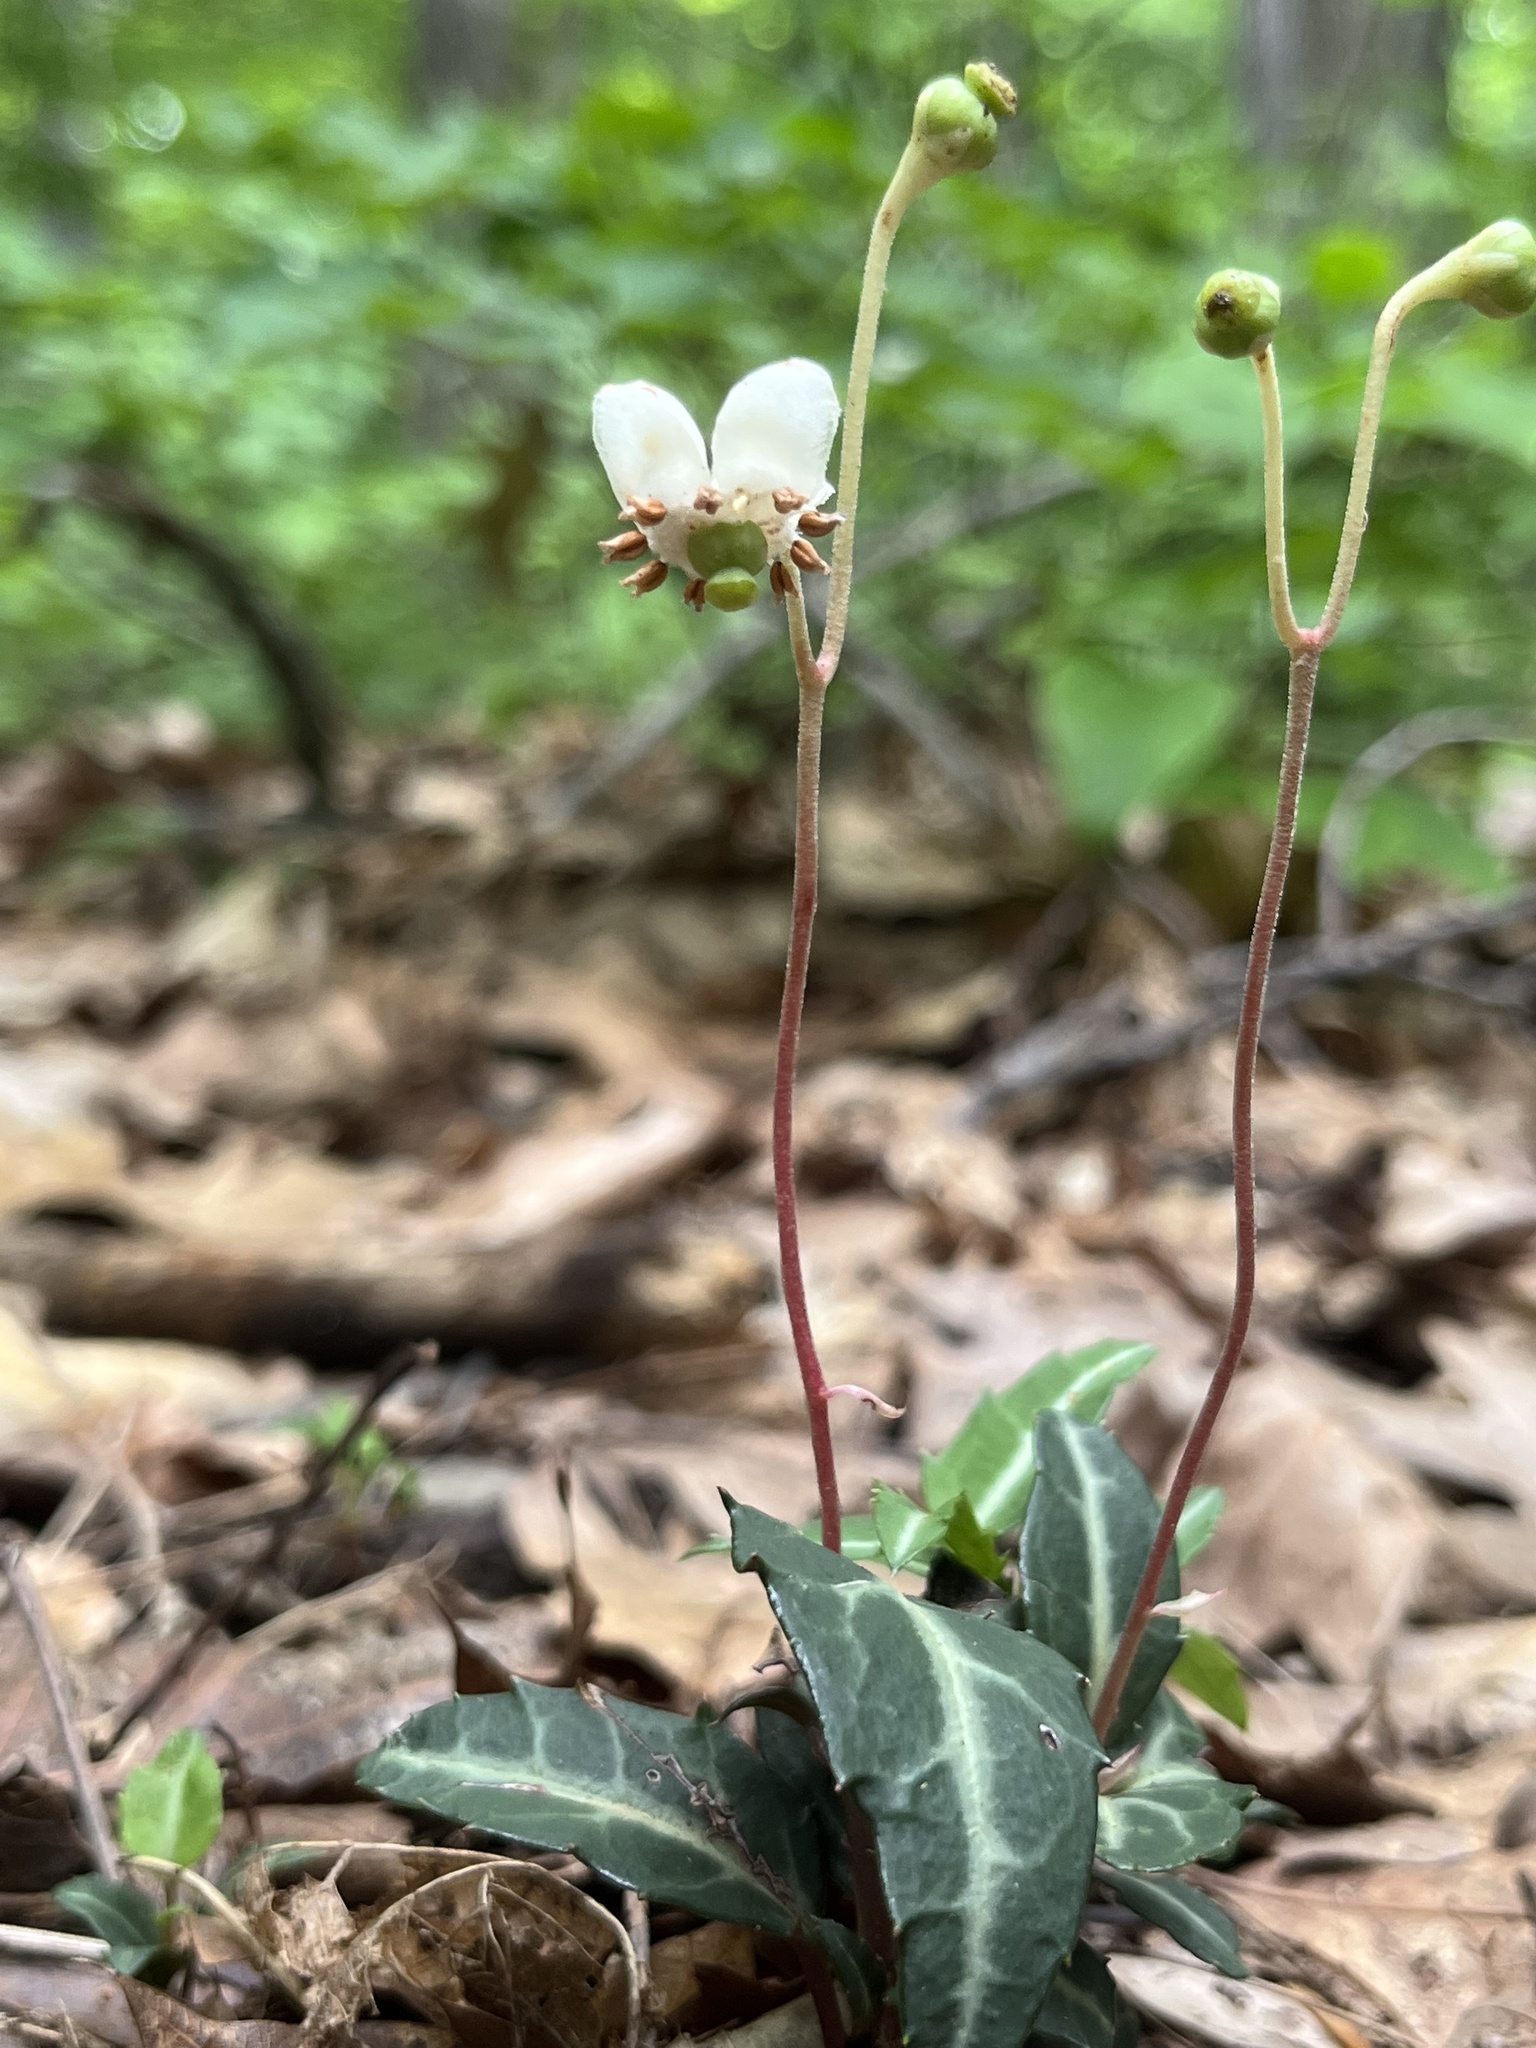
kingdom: Plantae
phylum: Tracheophyta
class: Magnoliopsida
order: Ericales
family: Ericaceae
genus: Chimaphila
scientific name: Chimaphila maculata
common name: Spotted pipsissewa
